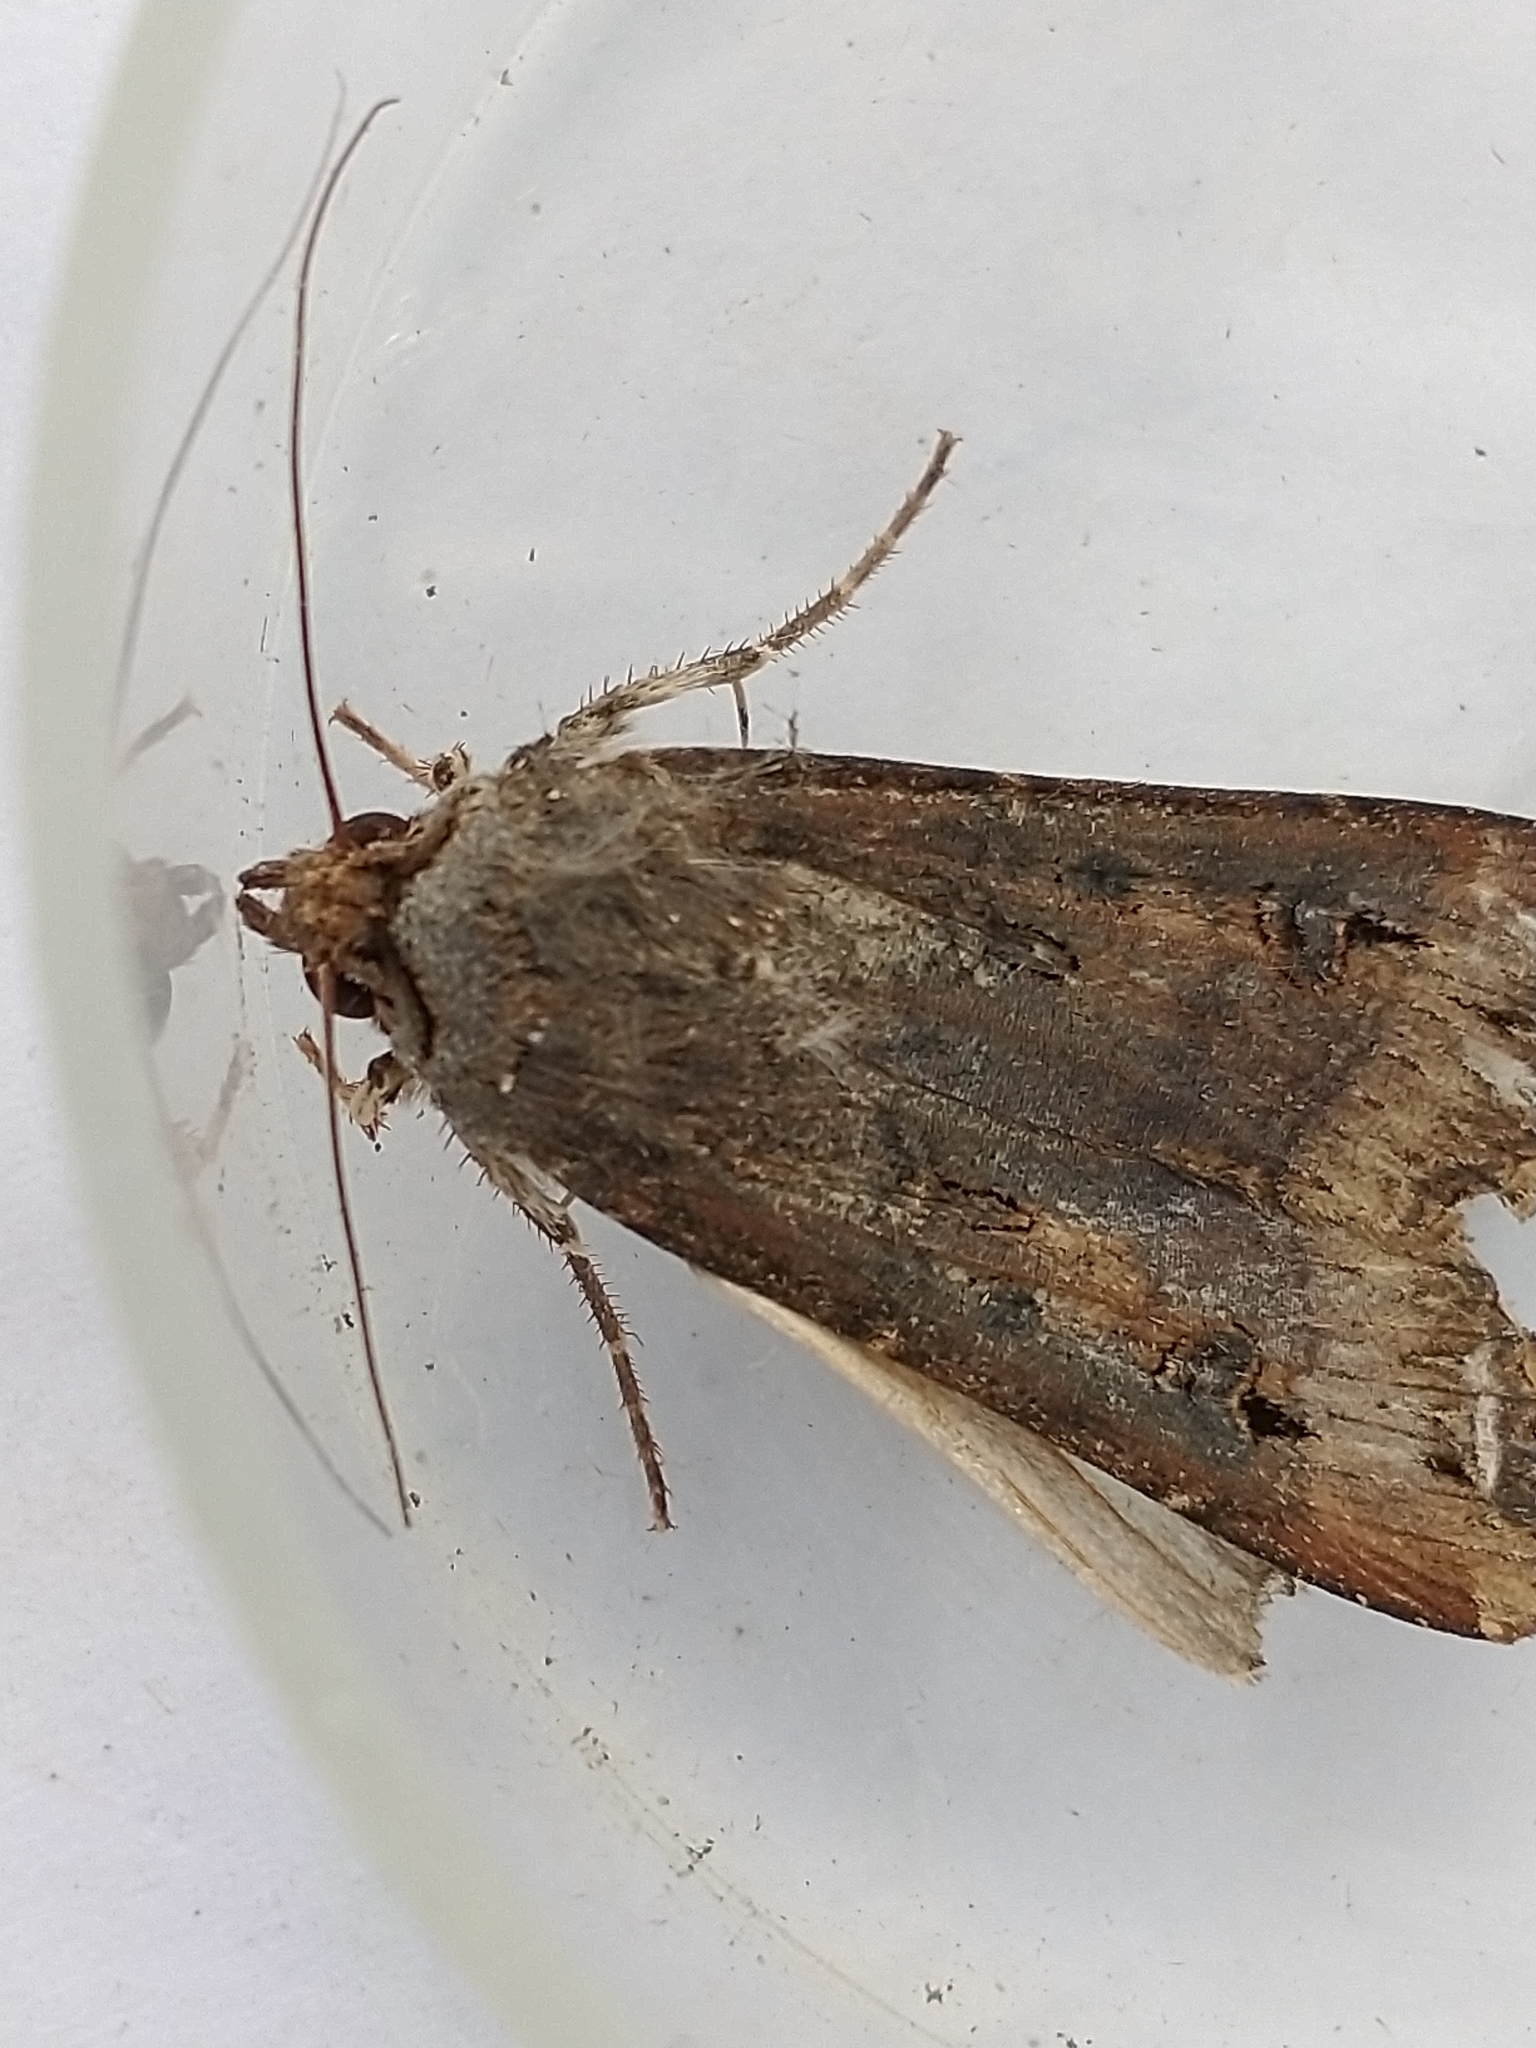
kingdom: Animalia
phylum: Arthropoda
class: Insecta
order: Lepidoptera
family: Noctuidae
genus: Agrotis
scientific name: Agrotis ipsilon
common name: Dark sword-grass
